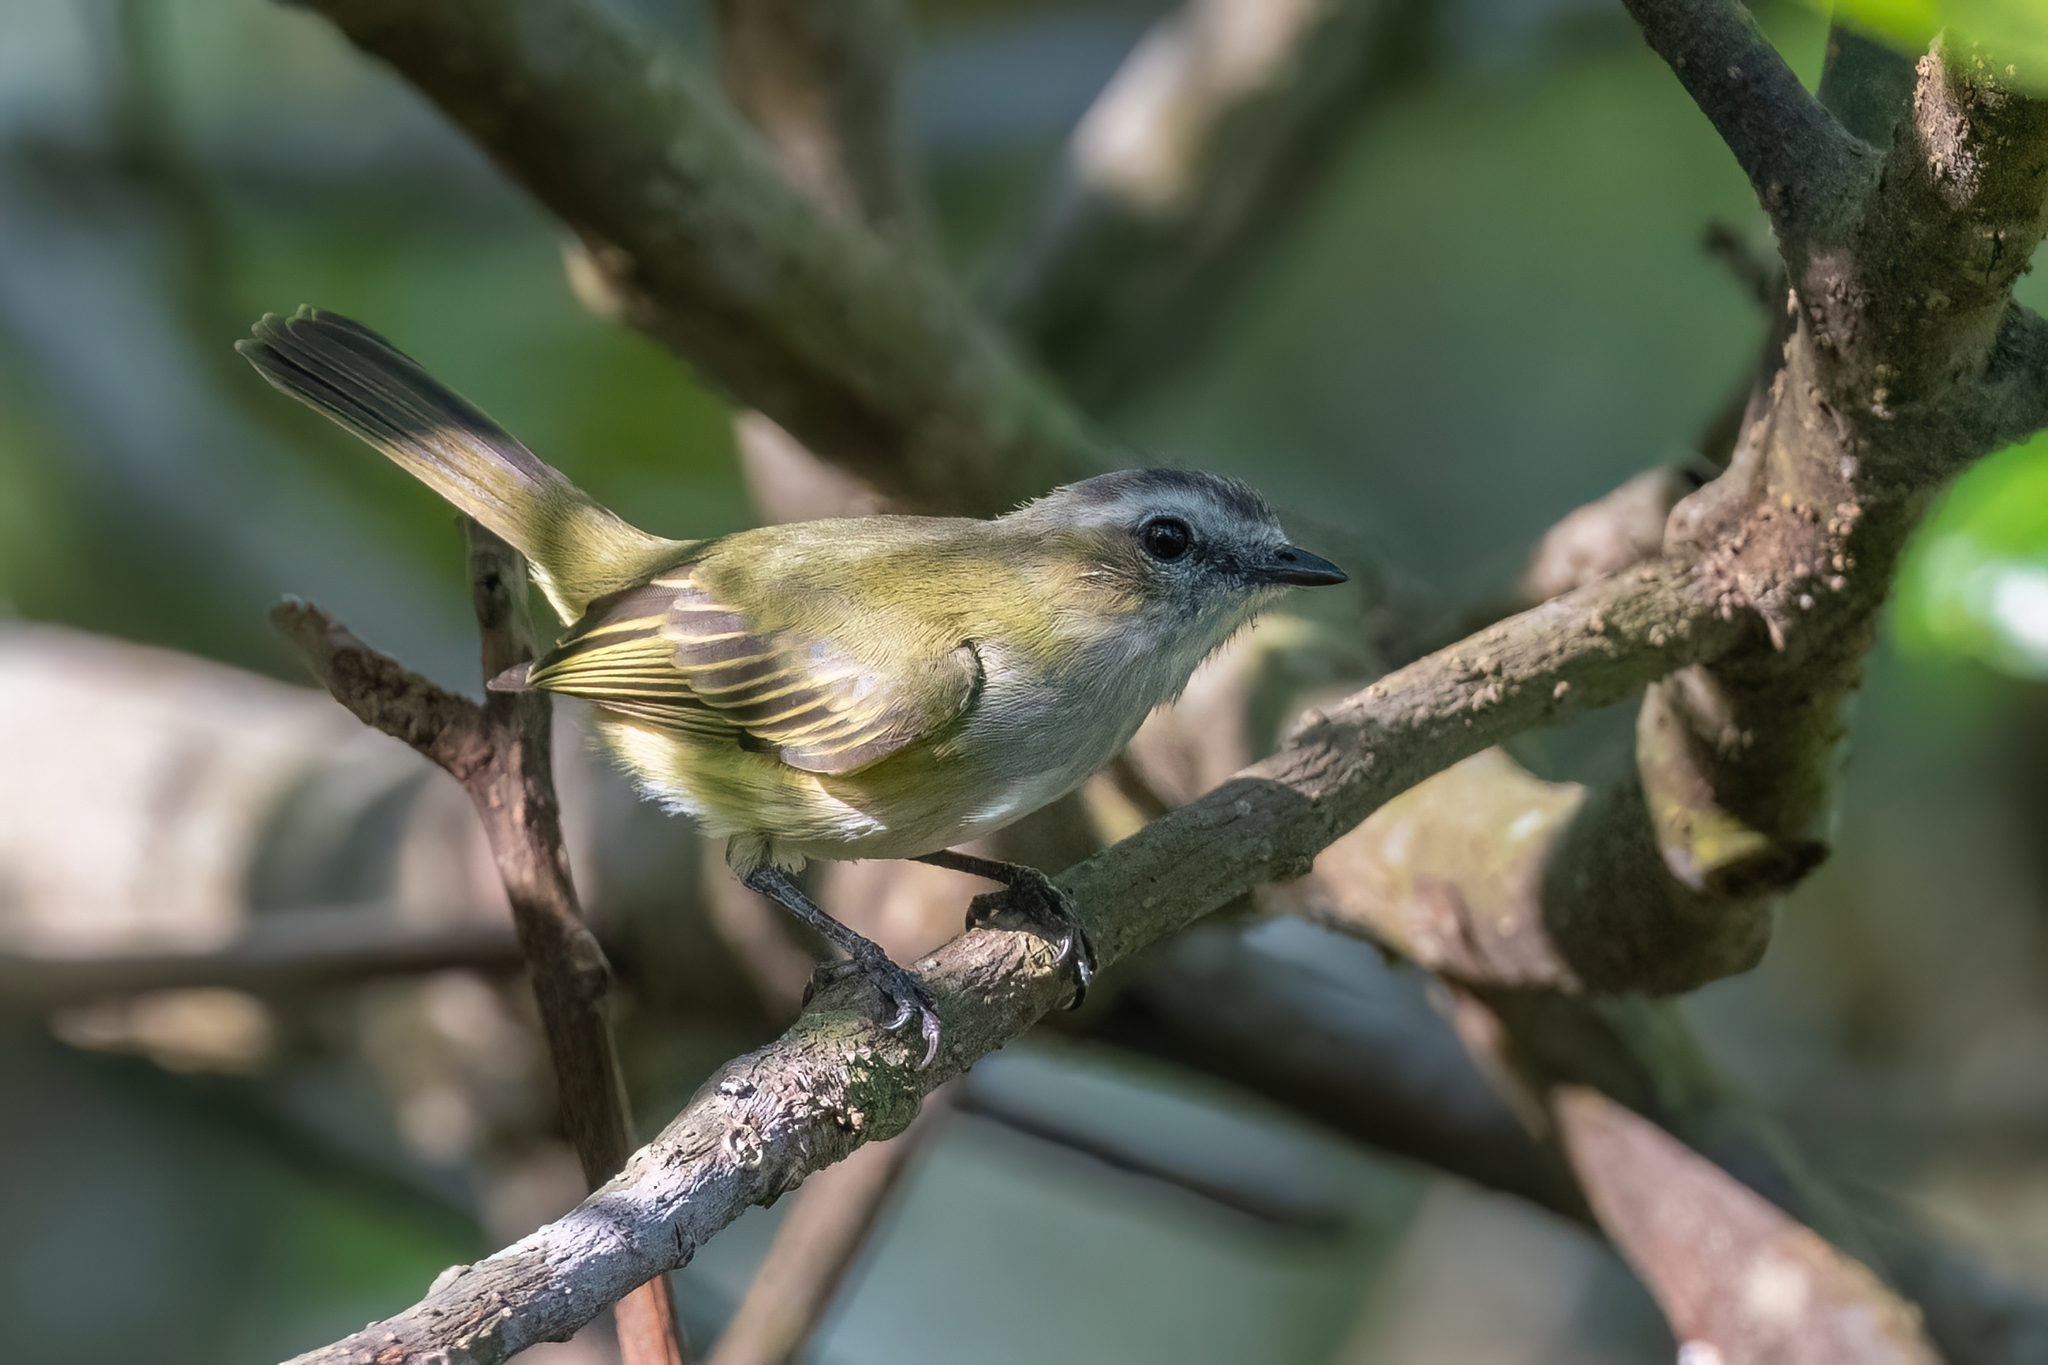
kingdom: Animalia
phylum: Chordata
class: Aves
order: Passeriformes
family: Tyrannidae
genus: Zimmerius
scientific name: Zimmerius vilissimus
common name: Paltry tyrannulet
